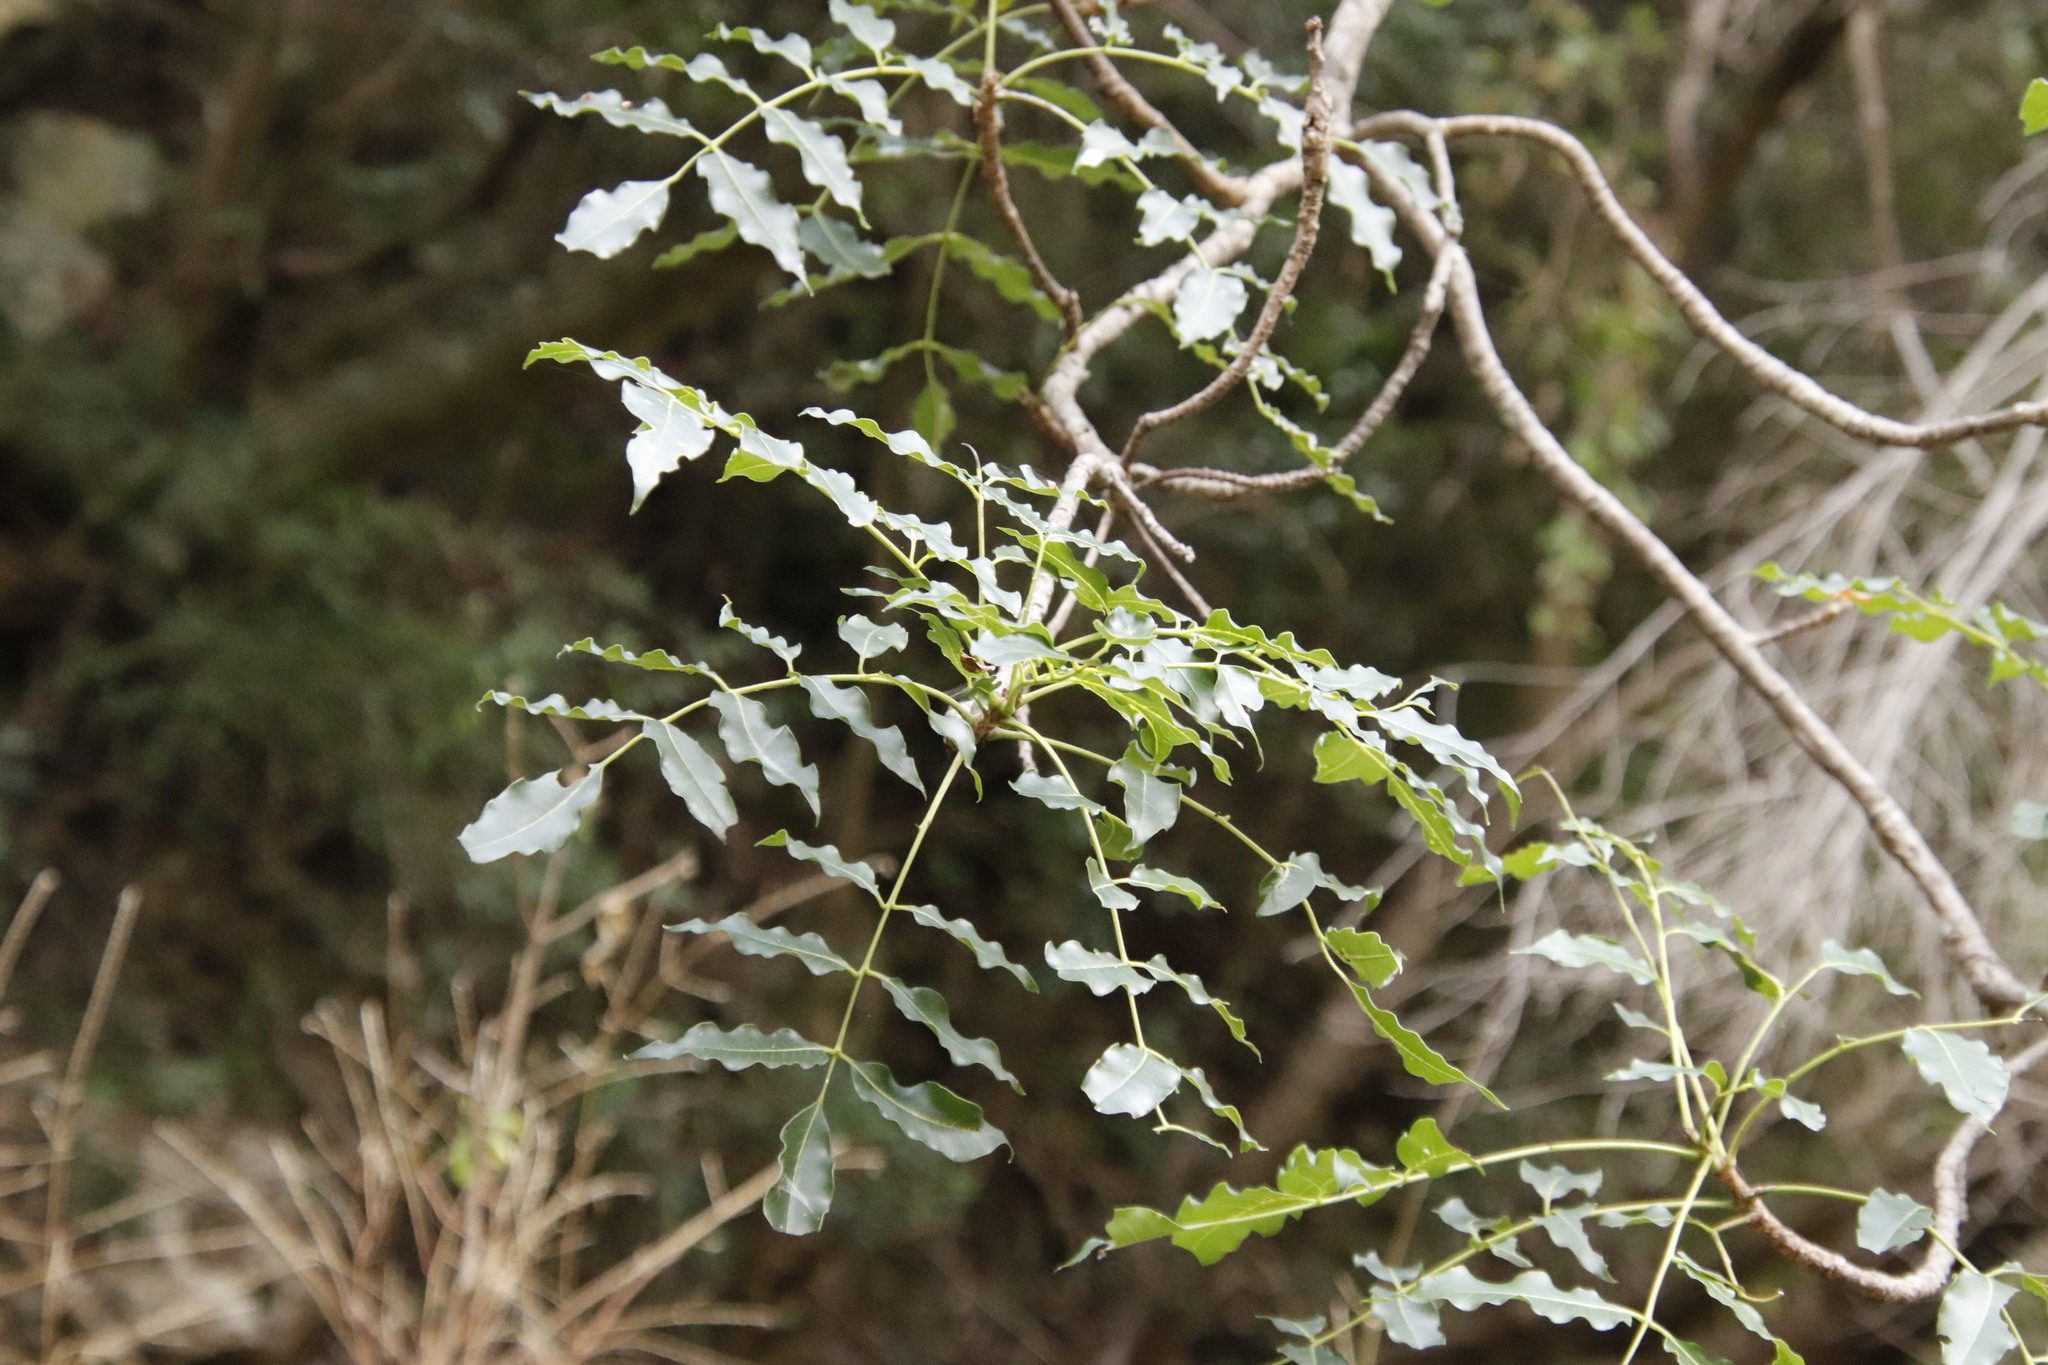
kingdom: Plantae
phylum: Tracheophyta
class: Magnoliopsida
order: Sapindales
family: Meliaceae
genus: Ekebergia
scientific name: Ekebergia capensis
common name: Cape-ash
